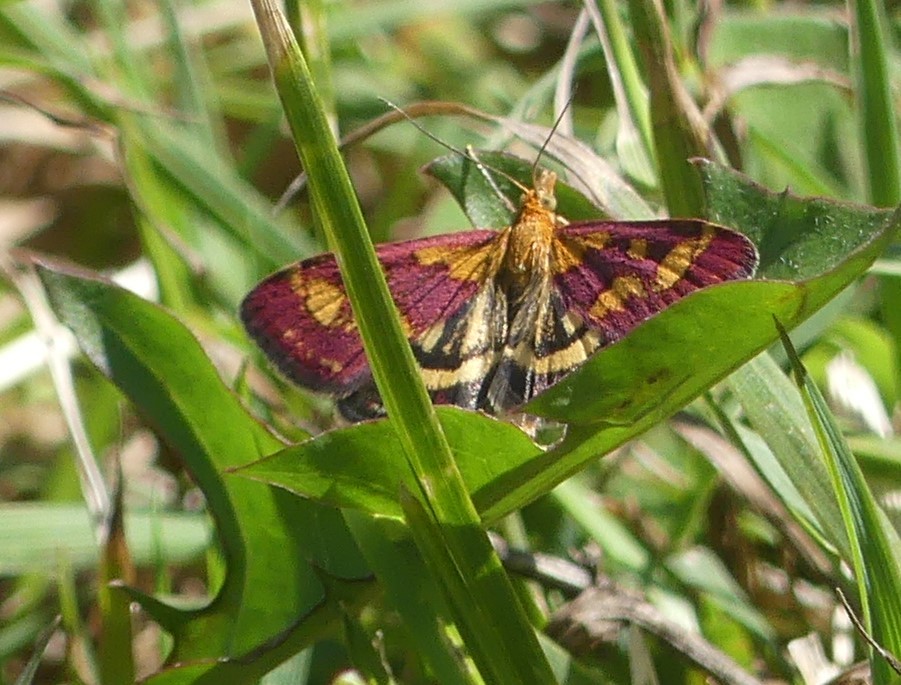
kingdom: Animalia
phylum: Arthropoda
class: Insecta
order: Lepidoptera
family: Crambidae
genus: Pyrausta
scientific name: Pyrausta purpuralis
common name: Common purple & gold
